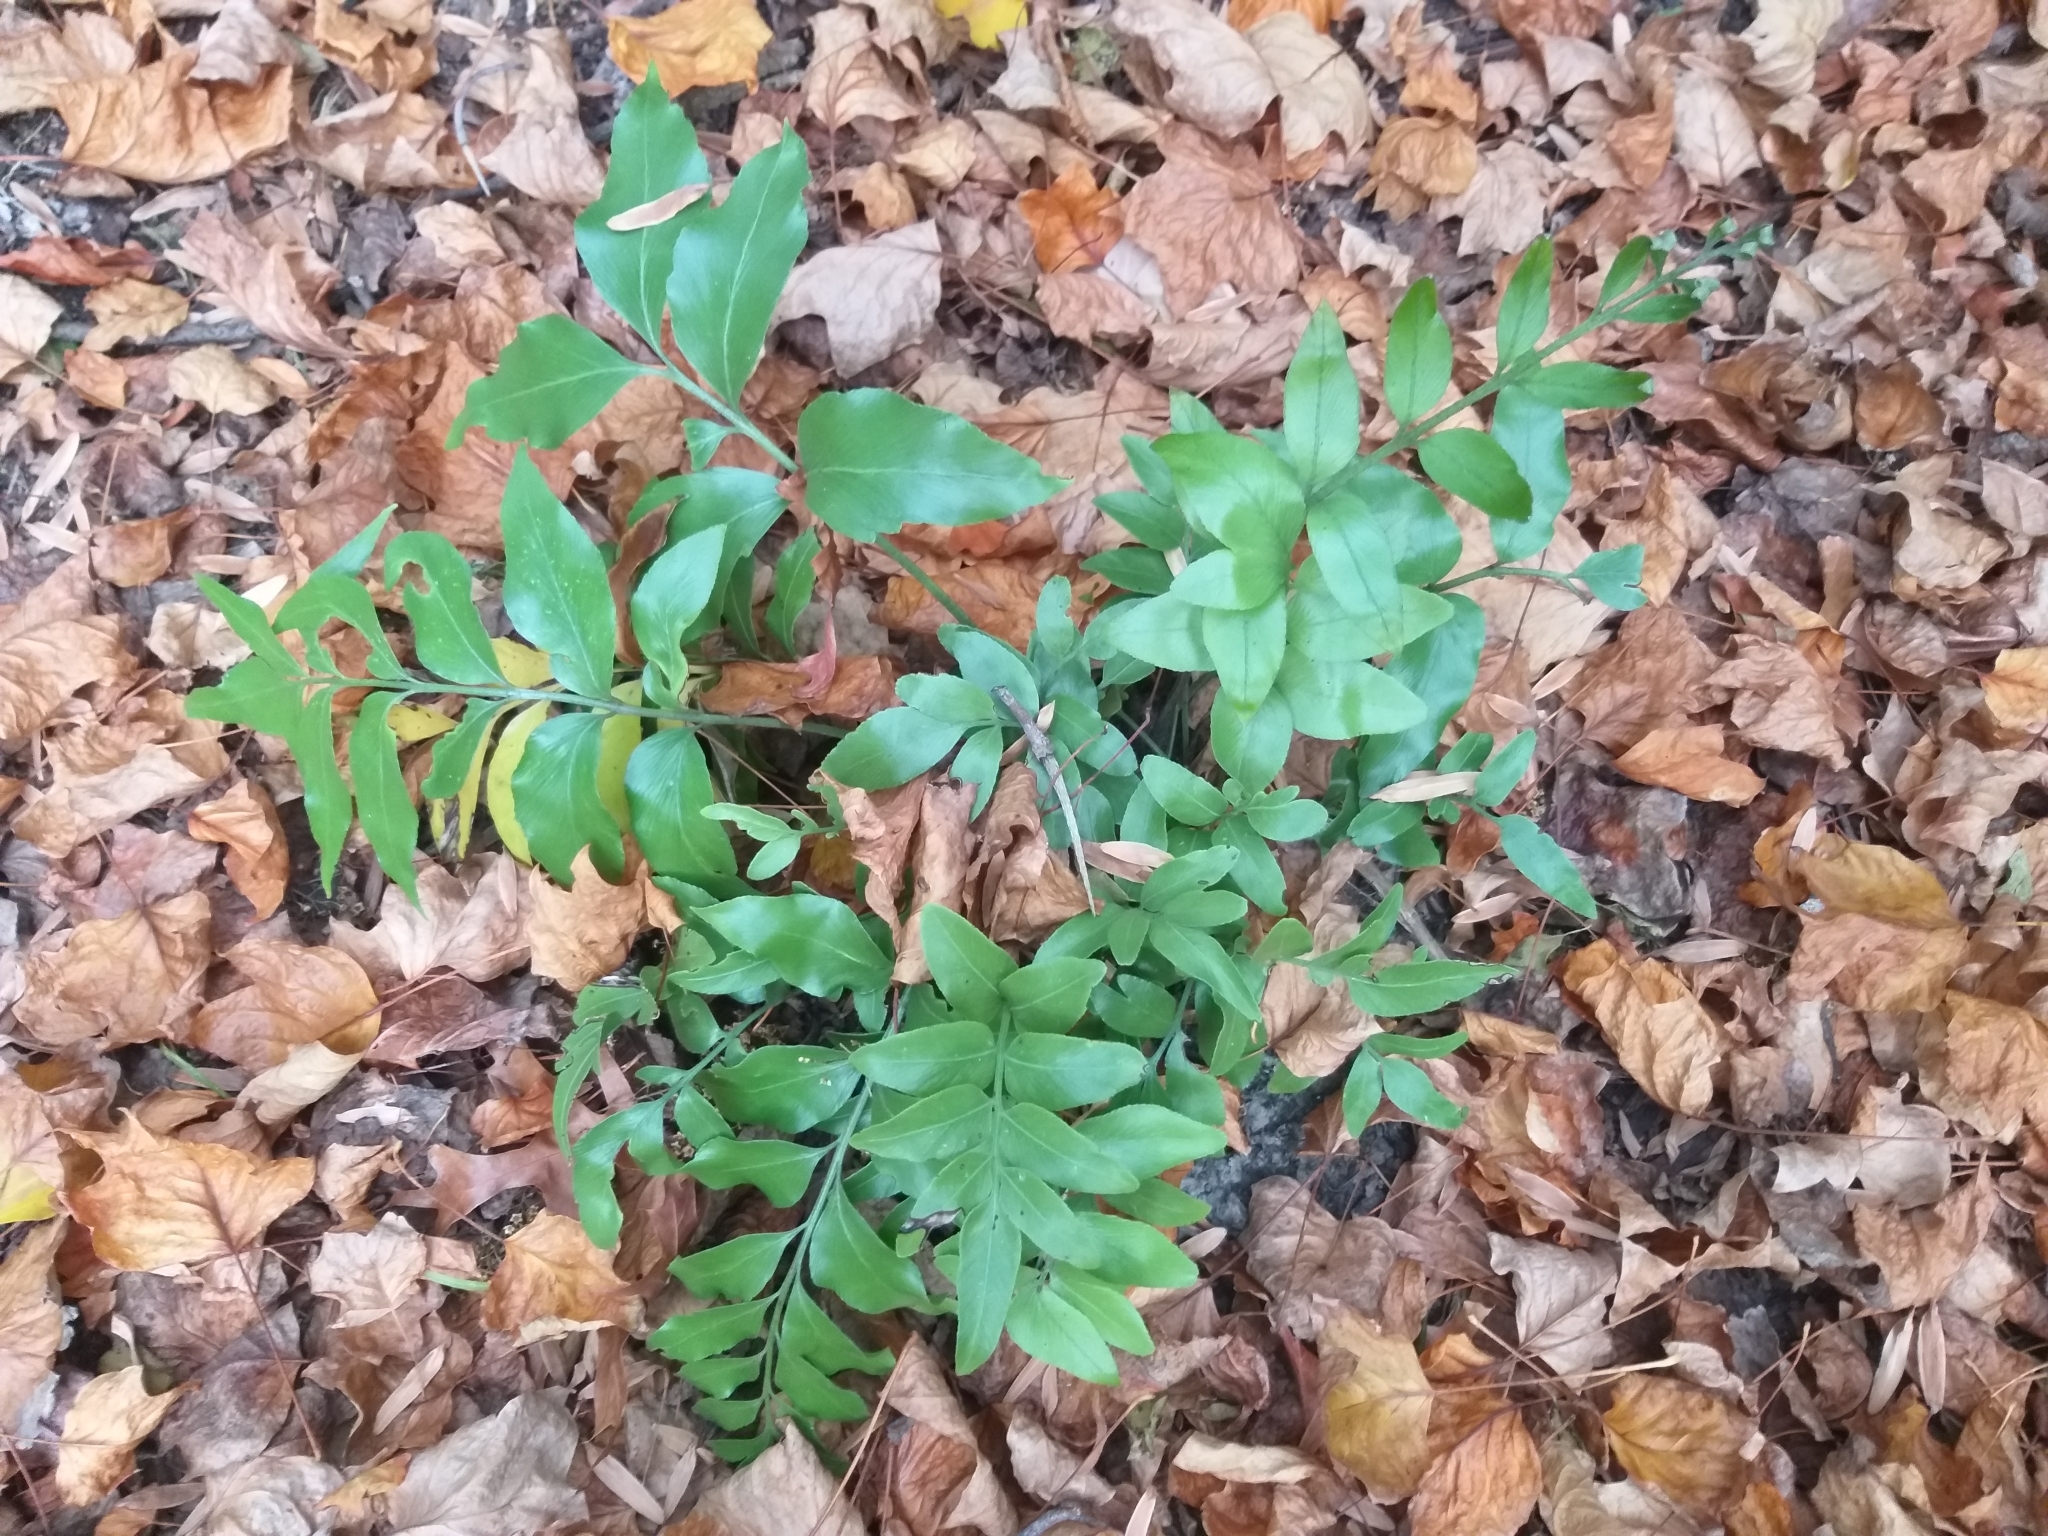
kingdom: Plantae
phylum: Tracheophyta
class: Polypodiopsida
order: Polypodiales
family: Aspleniaceae
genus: Asplenium
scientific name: Asplenium oblongifolium
